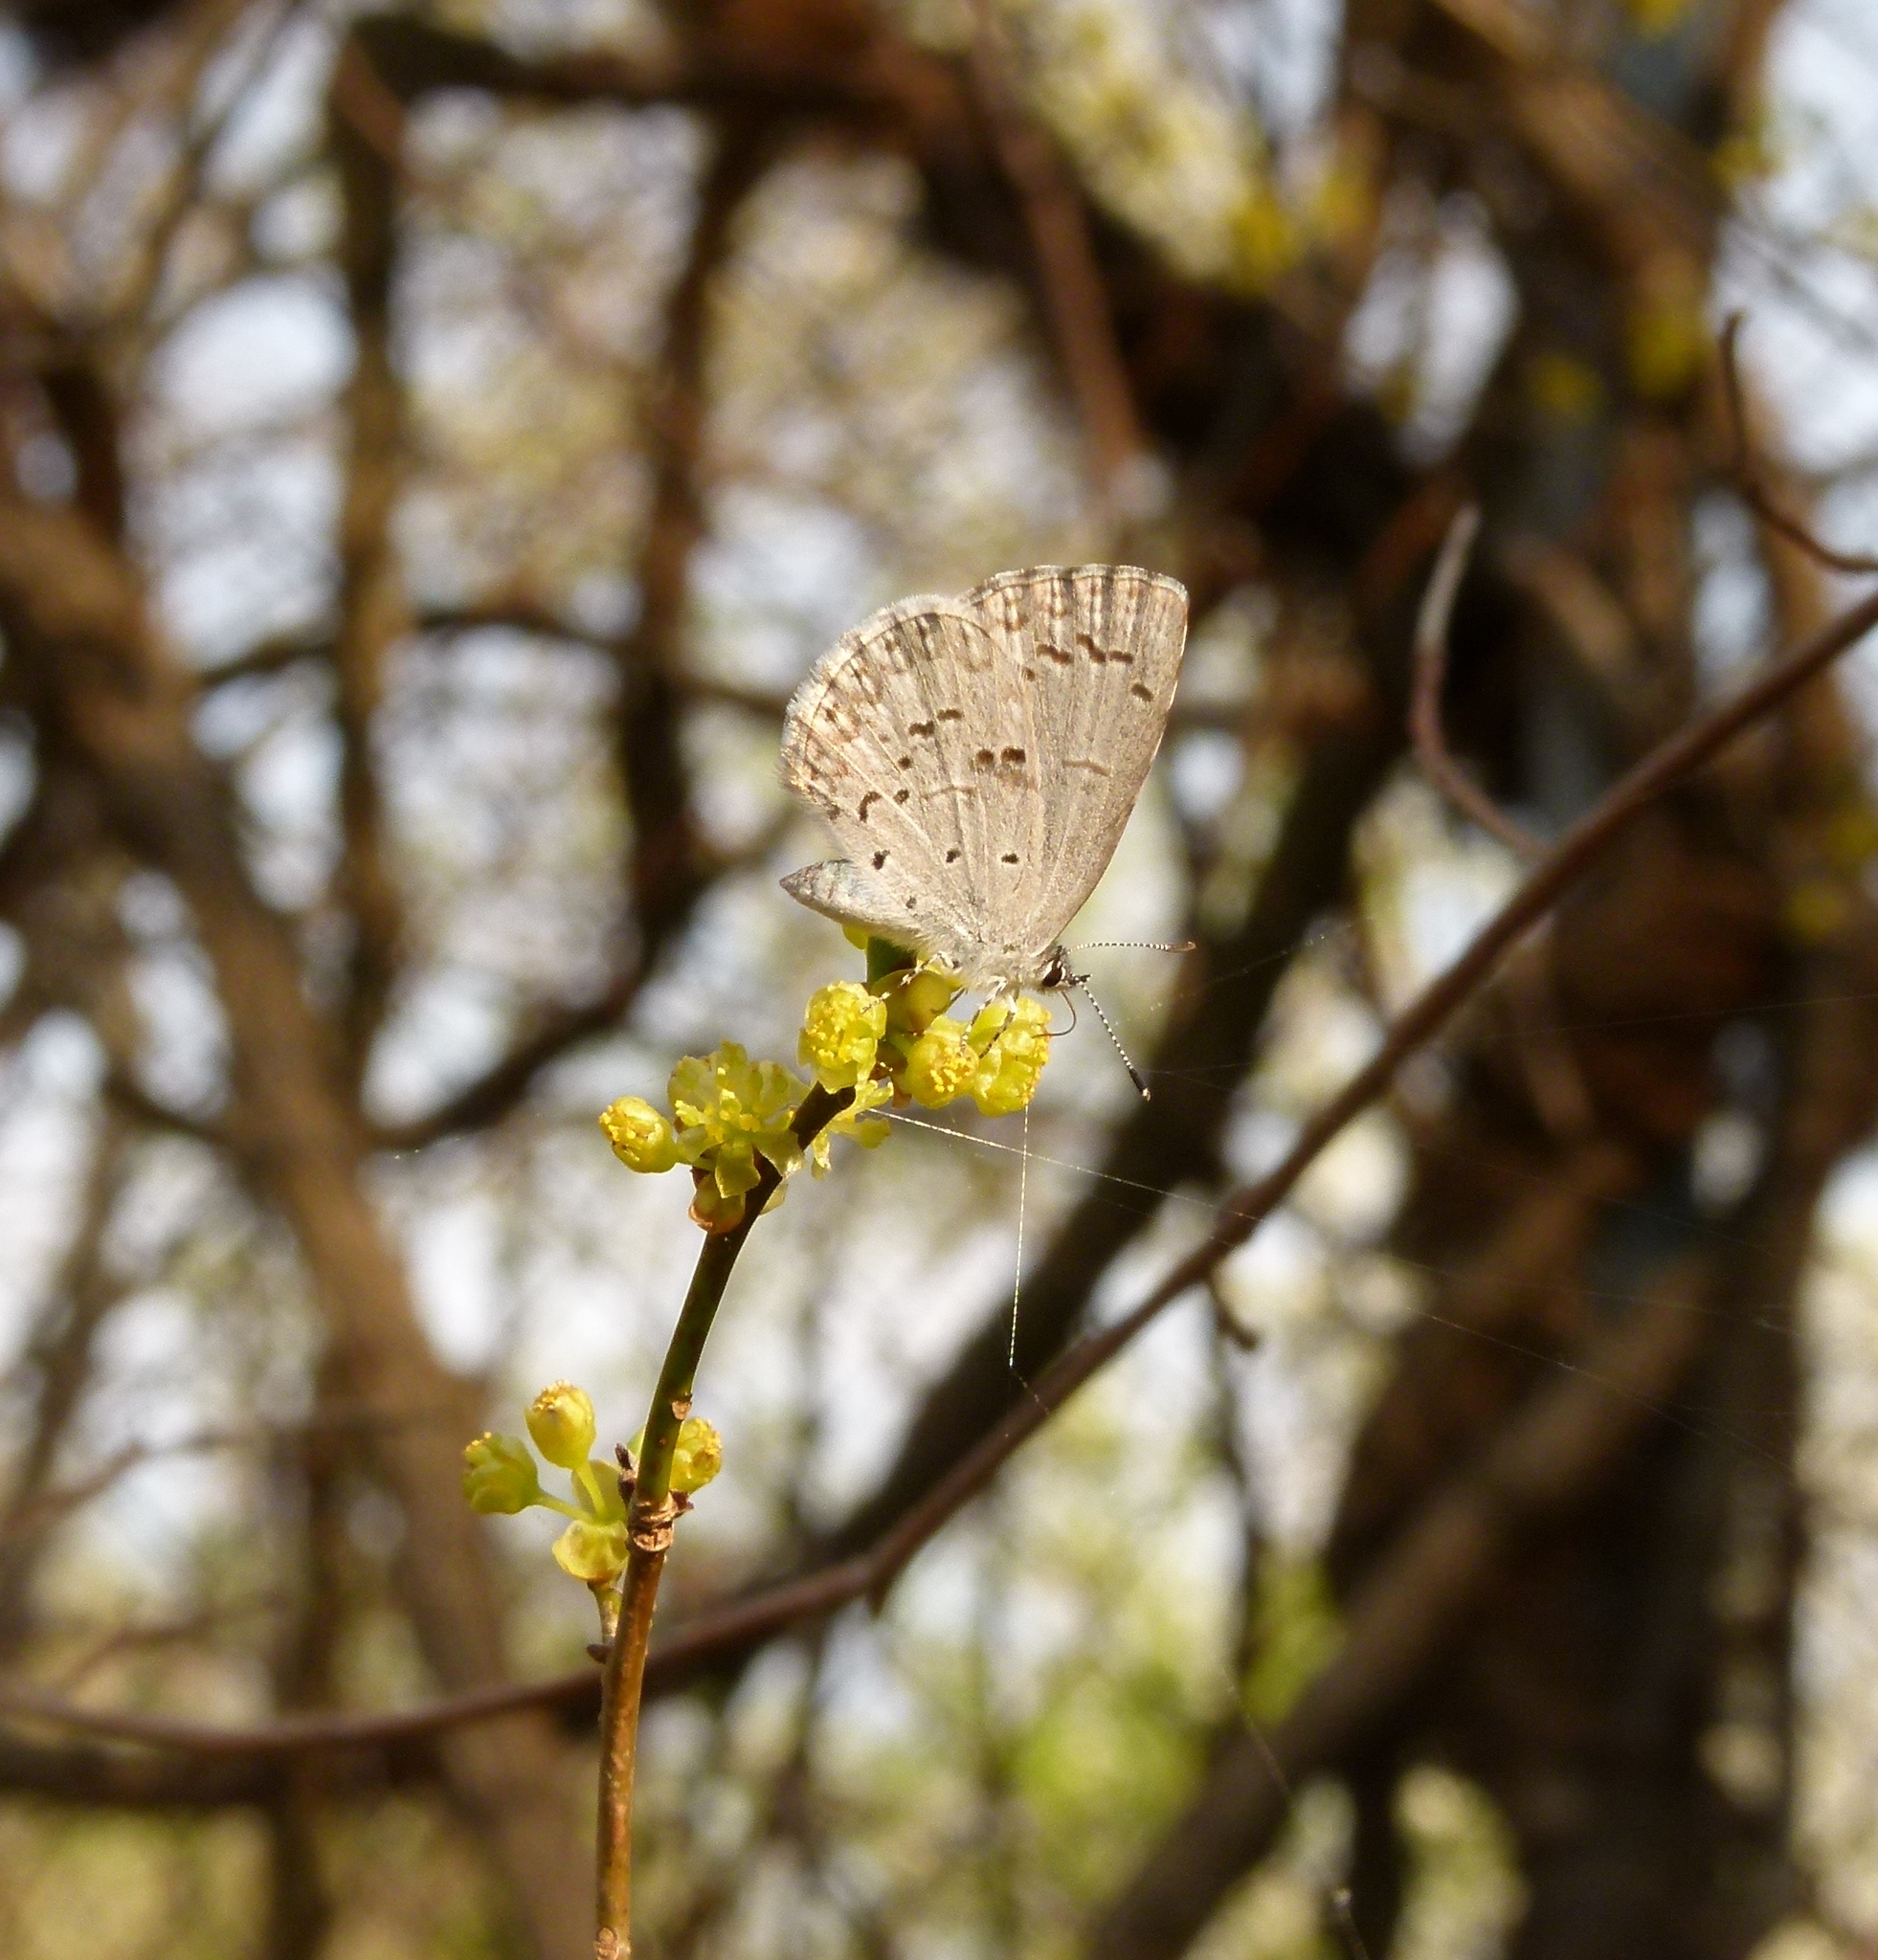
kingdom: Animalia
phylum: Arthropoda
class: Insecta
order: Lepidoptera
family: Lycaenidae
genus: Celastrina
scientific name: Celastrina
